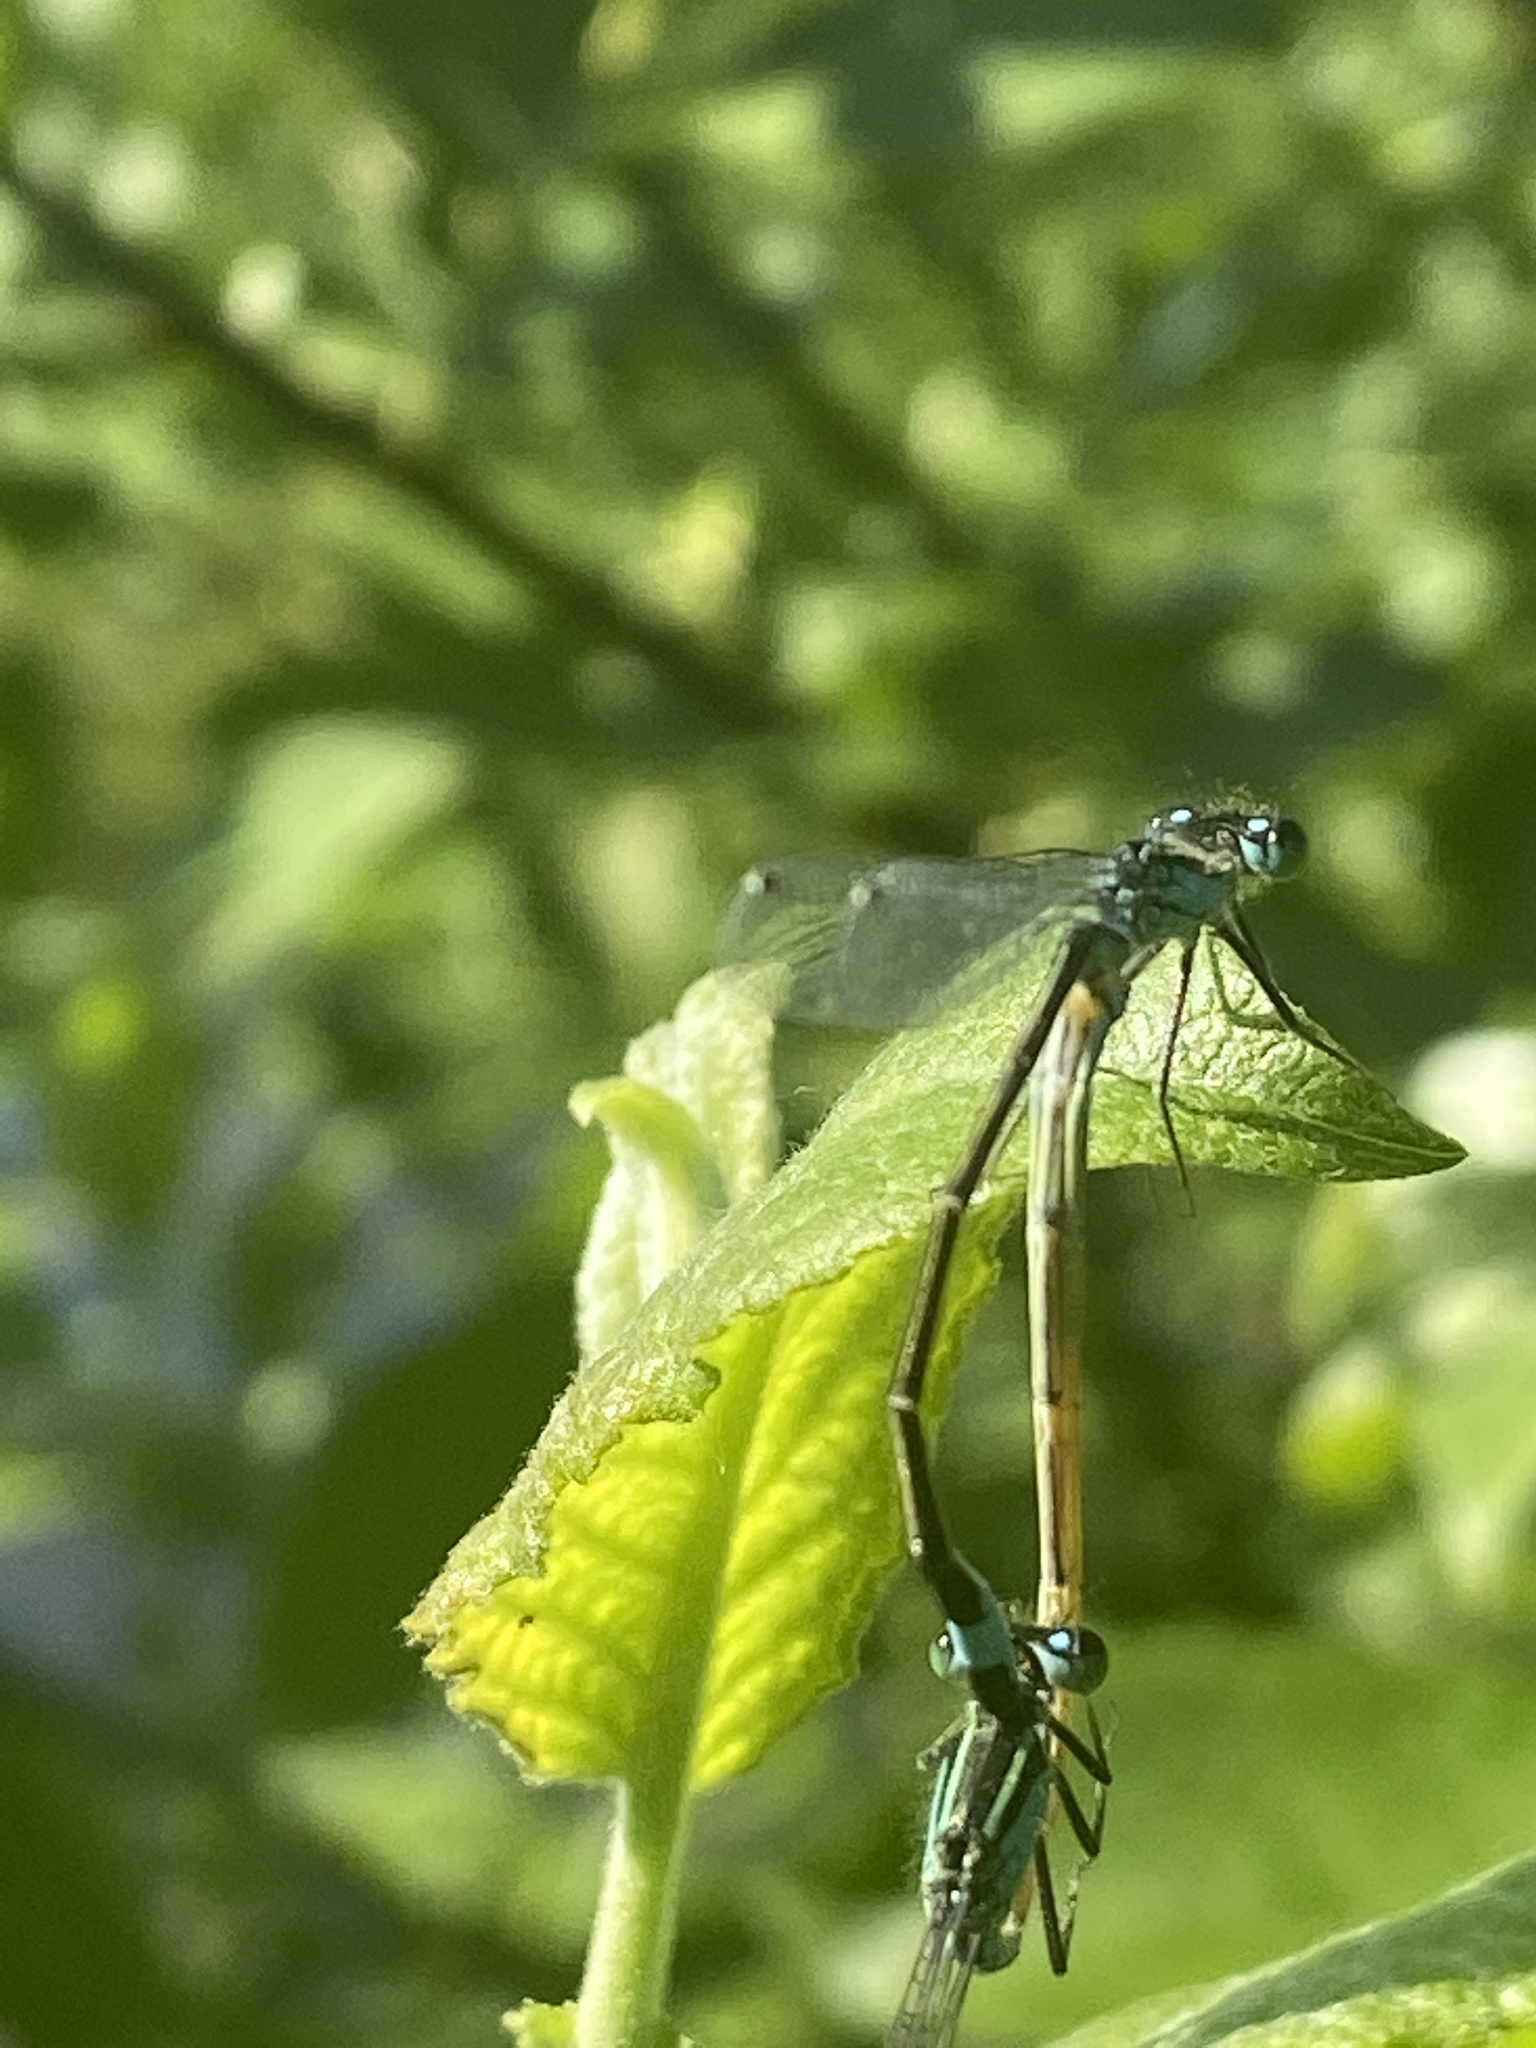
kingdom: Animalia
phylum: Arthropoda
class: Insecta
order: Odonata
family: Coenagrionidae
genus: Ischnura
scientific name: Ischnura elegans
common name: Blue-tailed damselfly
